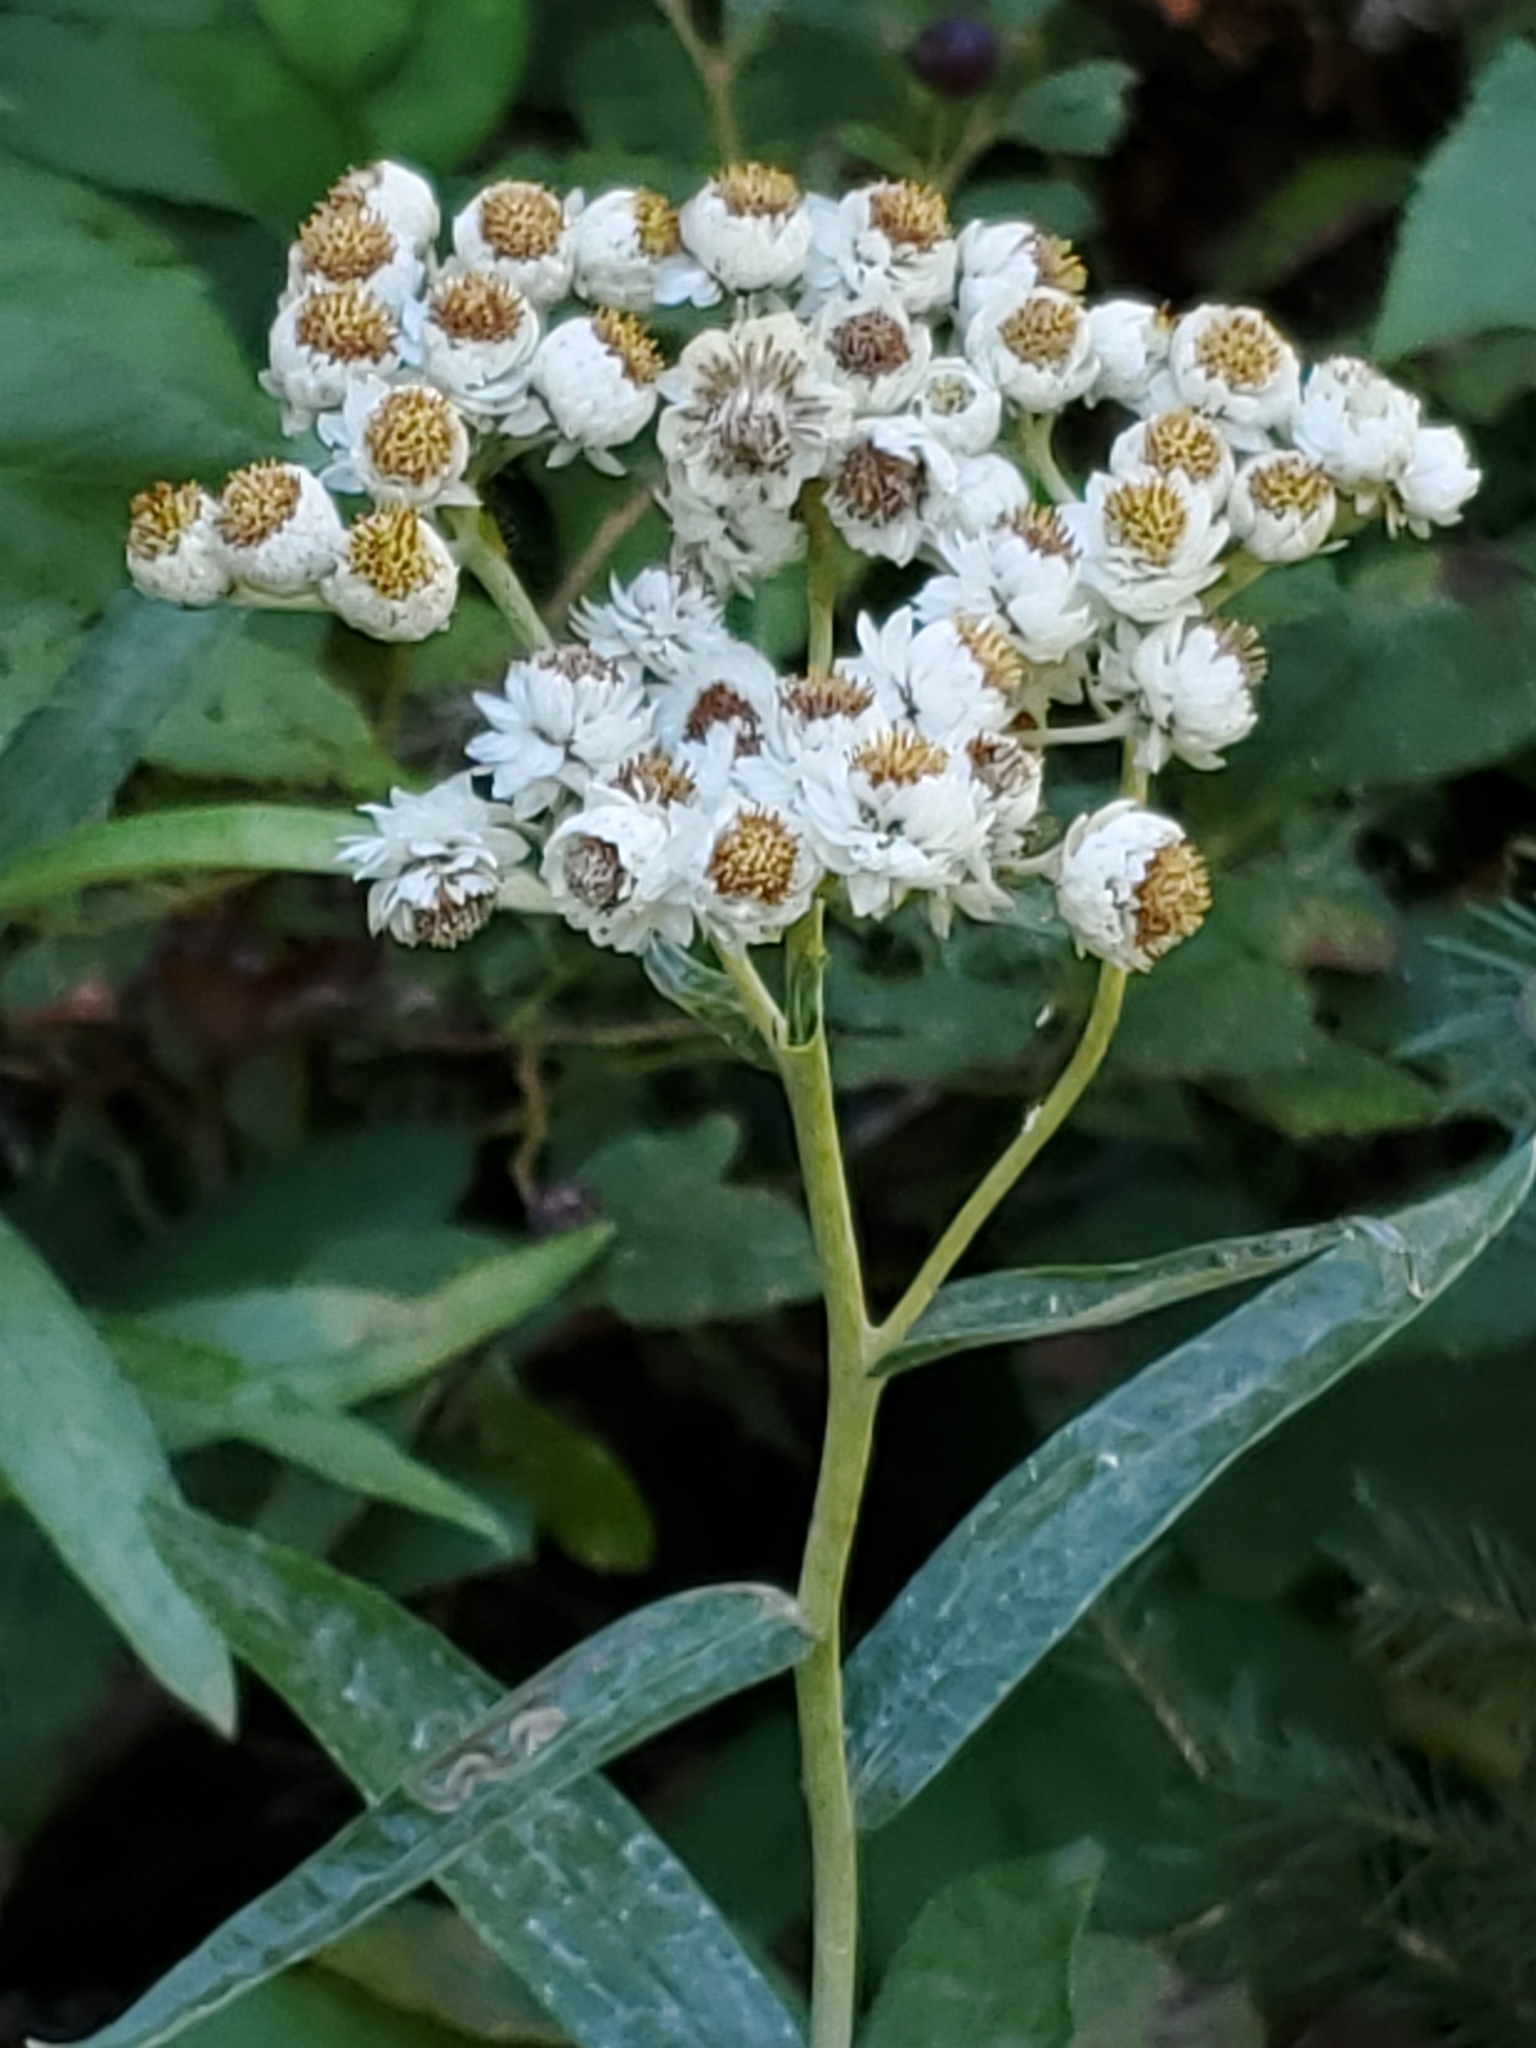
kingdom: Plantae
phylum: Tracheophyta
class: Magnoliopsida
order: Asterales
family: Asteraceae
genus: Anaphalis
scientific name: Anaphalis margaritacea
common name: Pearly everlasting
